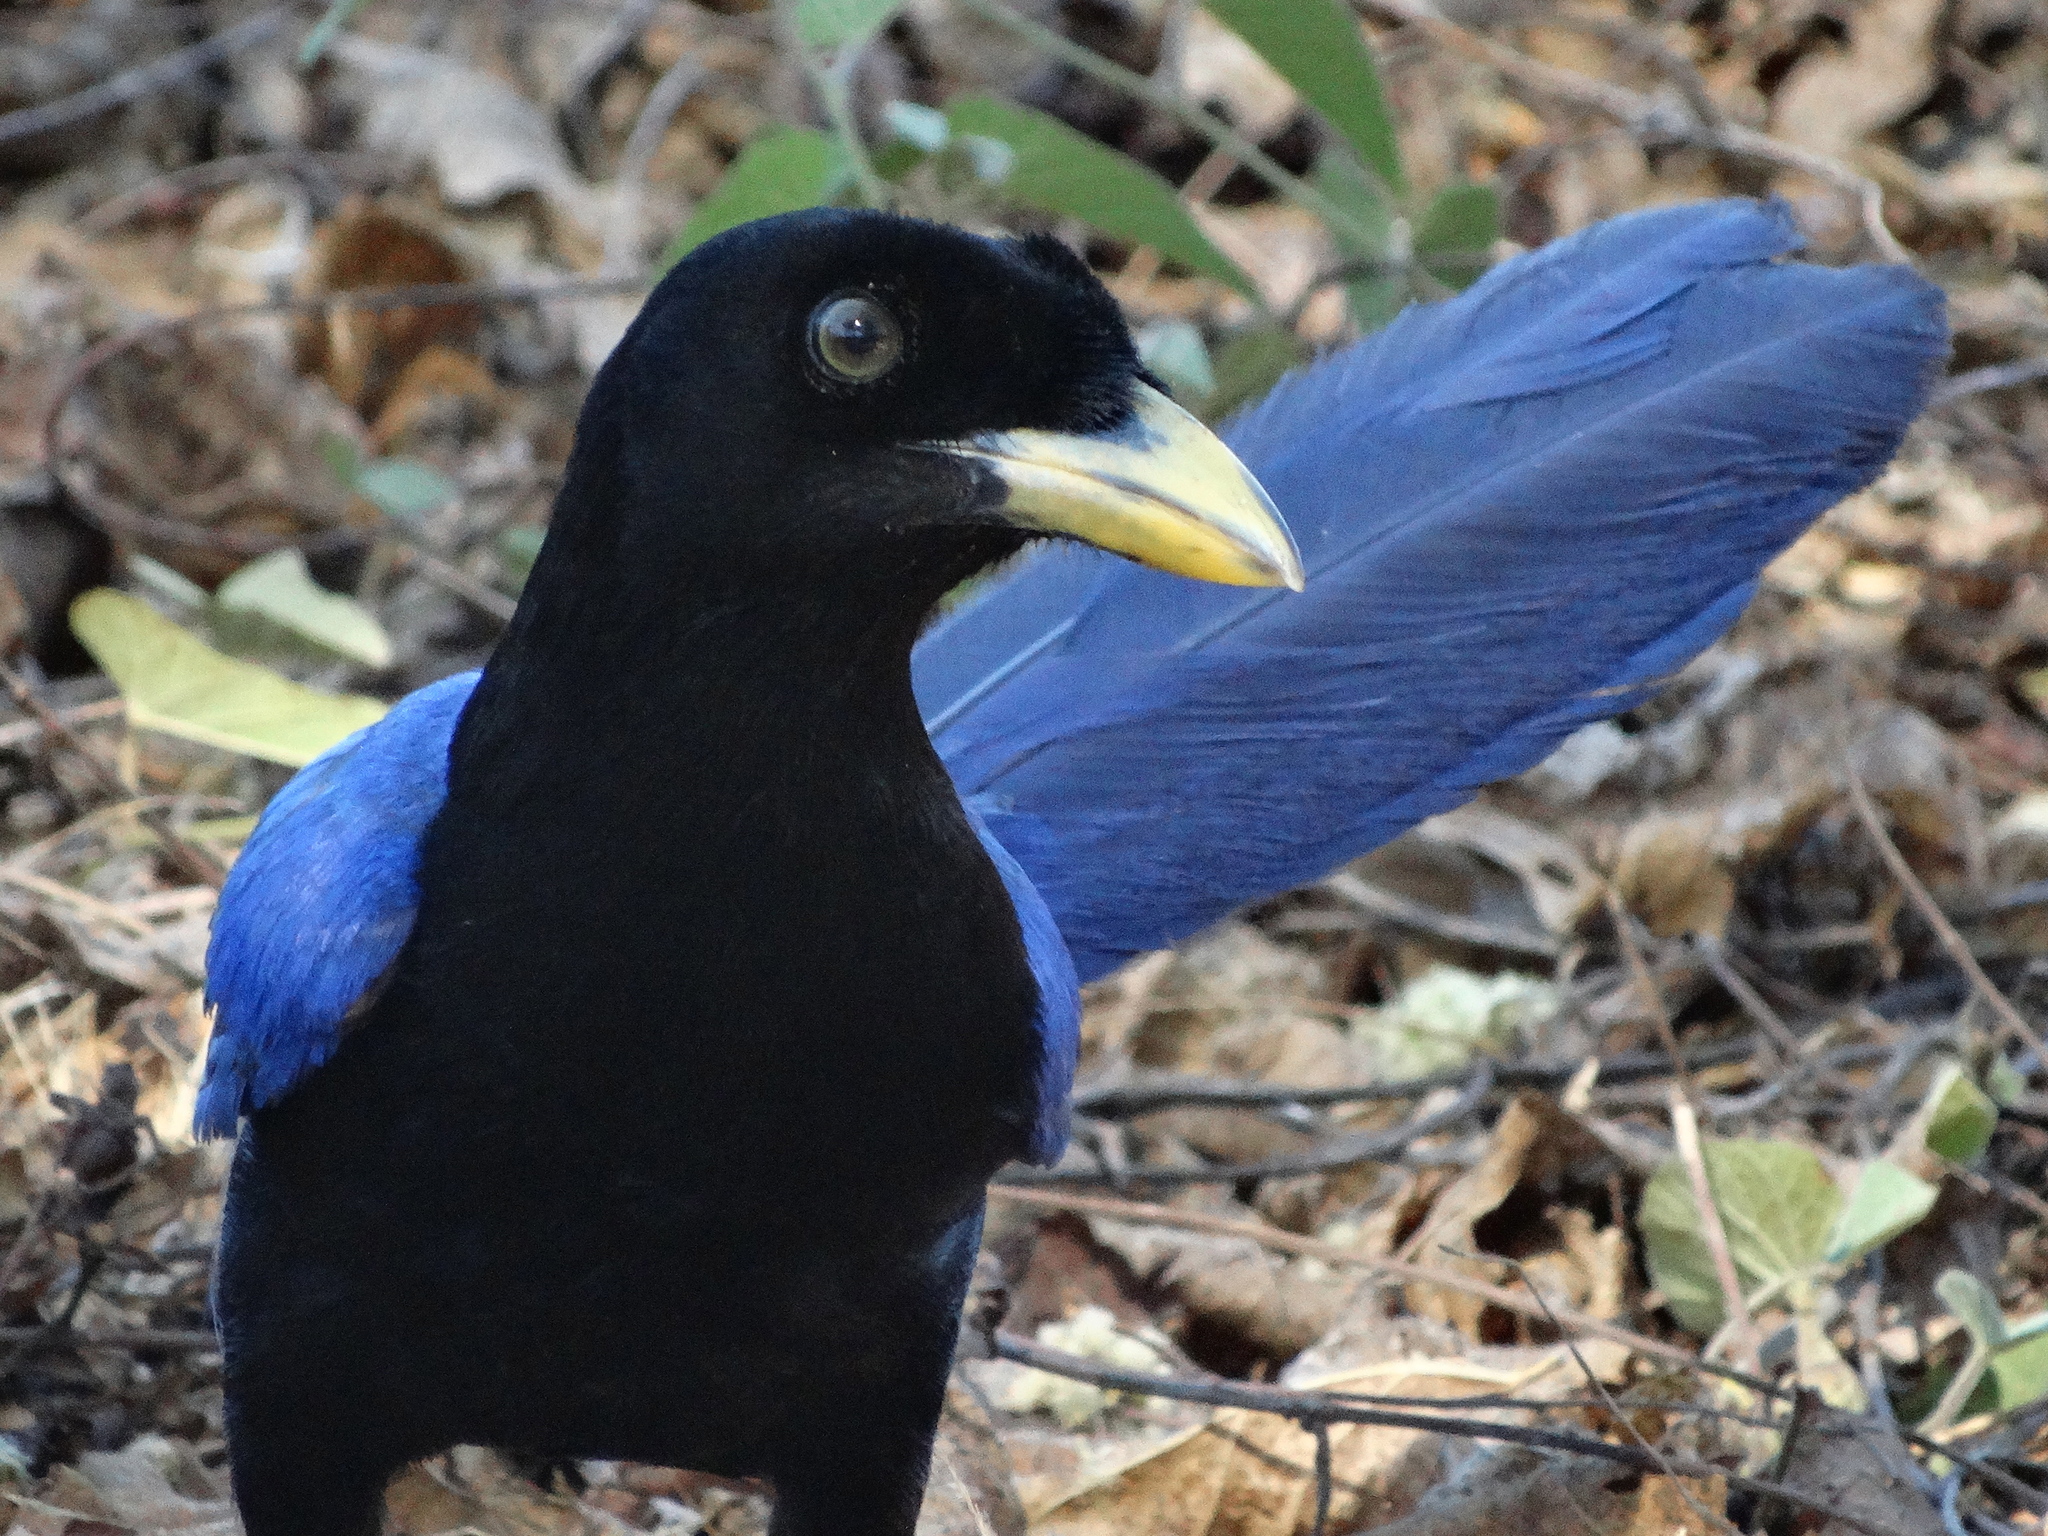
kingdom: Animalia
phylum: Chordata
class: Aves
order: Passeriformes
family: Corvidae
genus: Cyanocorax
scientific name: Cyanocorax beecheii
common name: Purplish-backed jay
